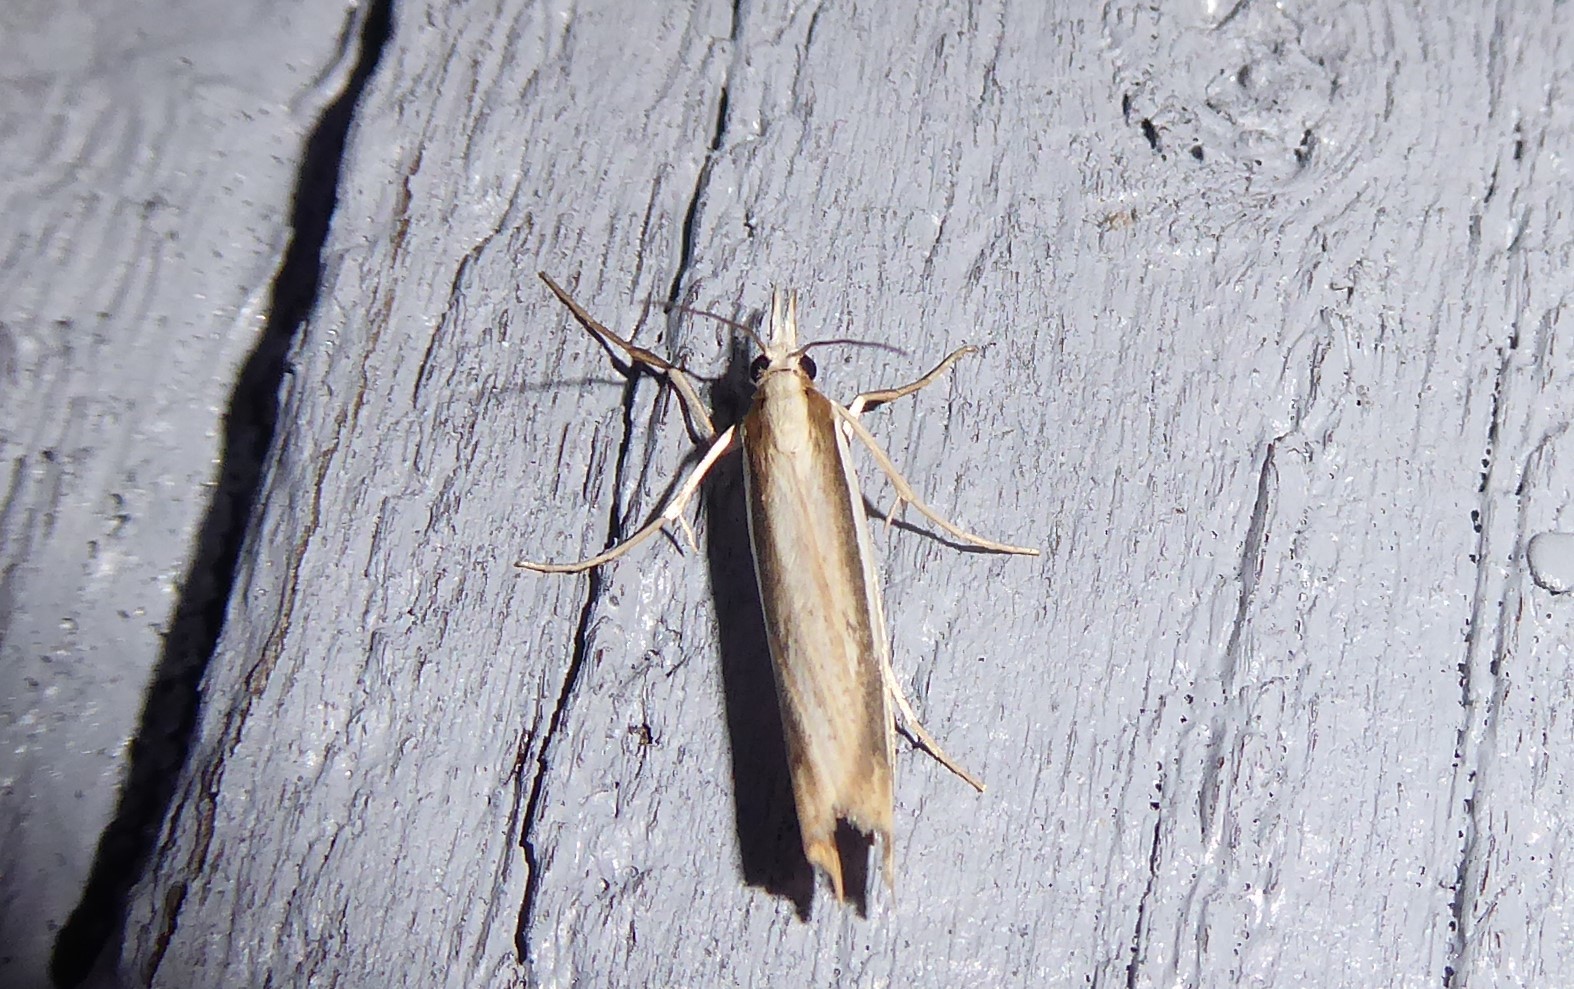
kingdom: Animalia
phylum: Arthropoda
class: Insecta
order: Lepidoptera
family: Crambidae
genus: Orocrambus
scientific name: Orocrambus ramosellus
